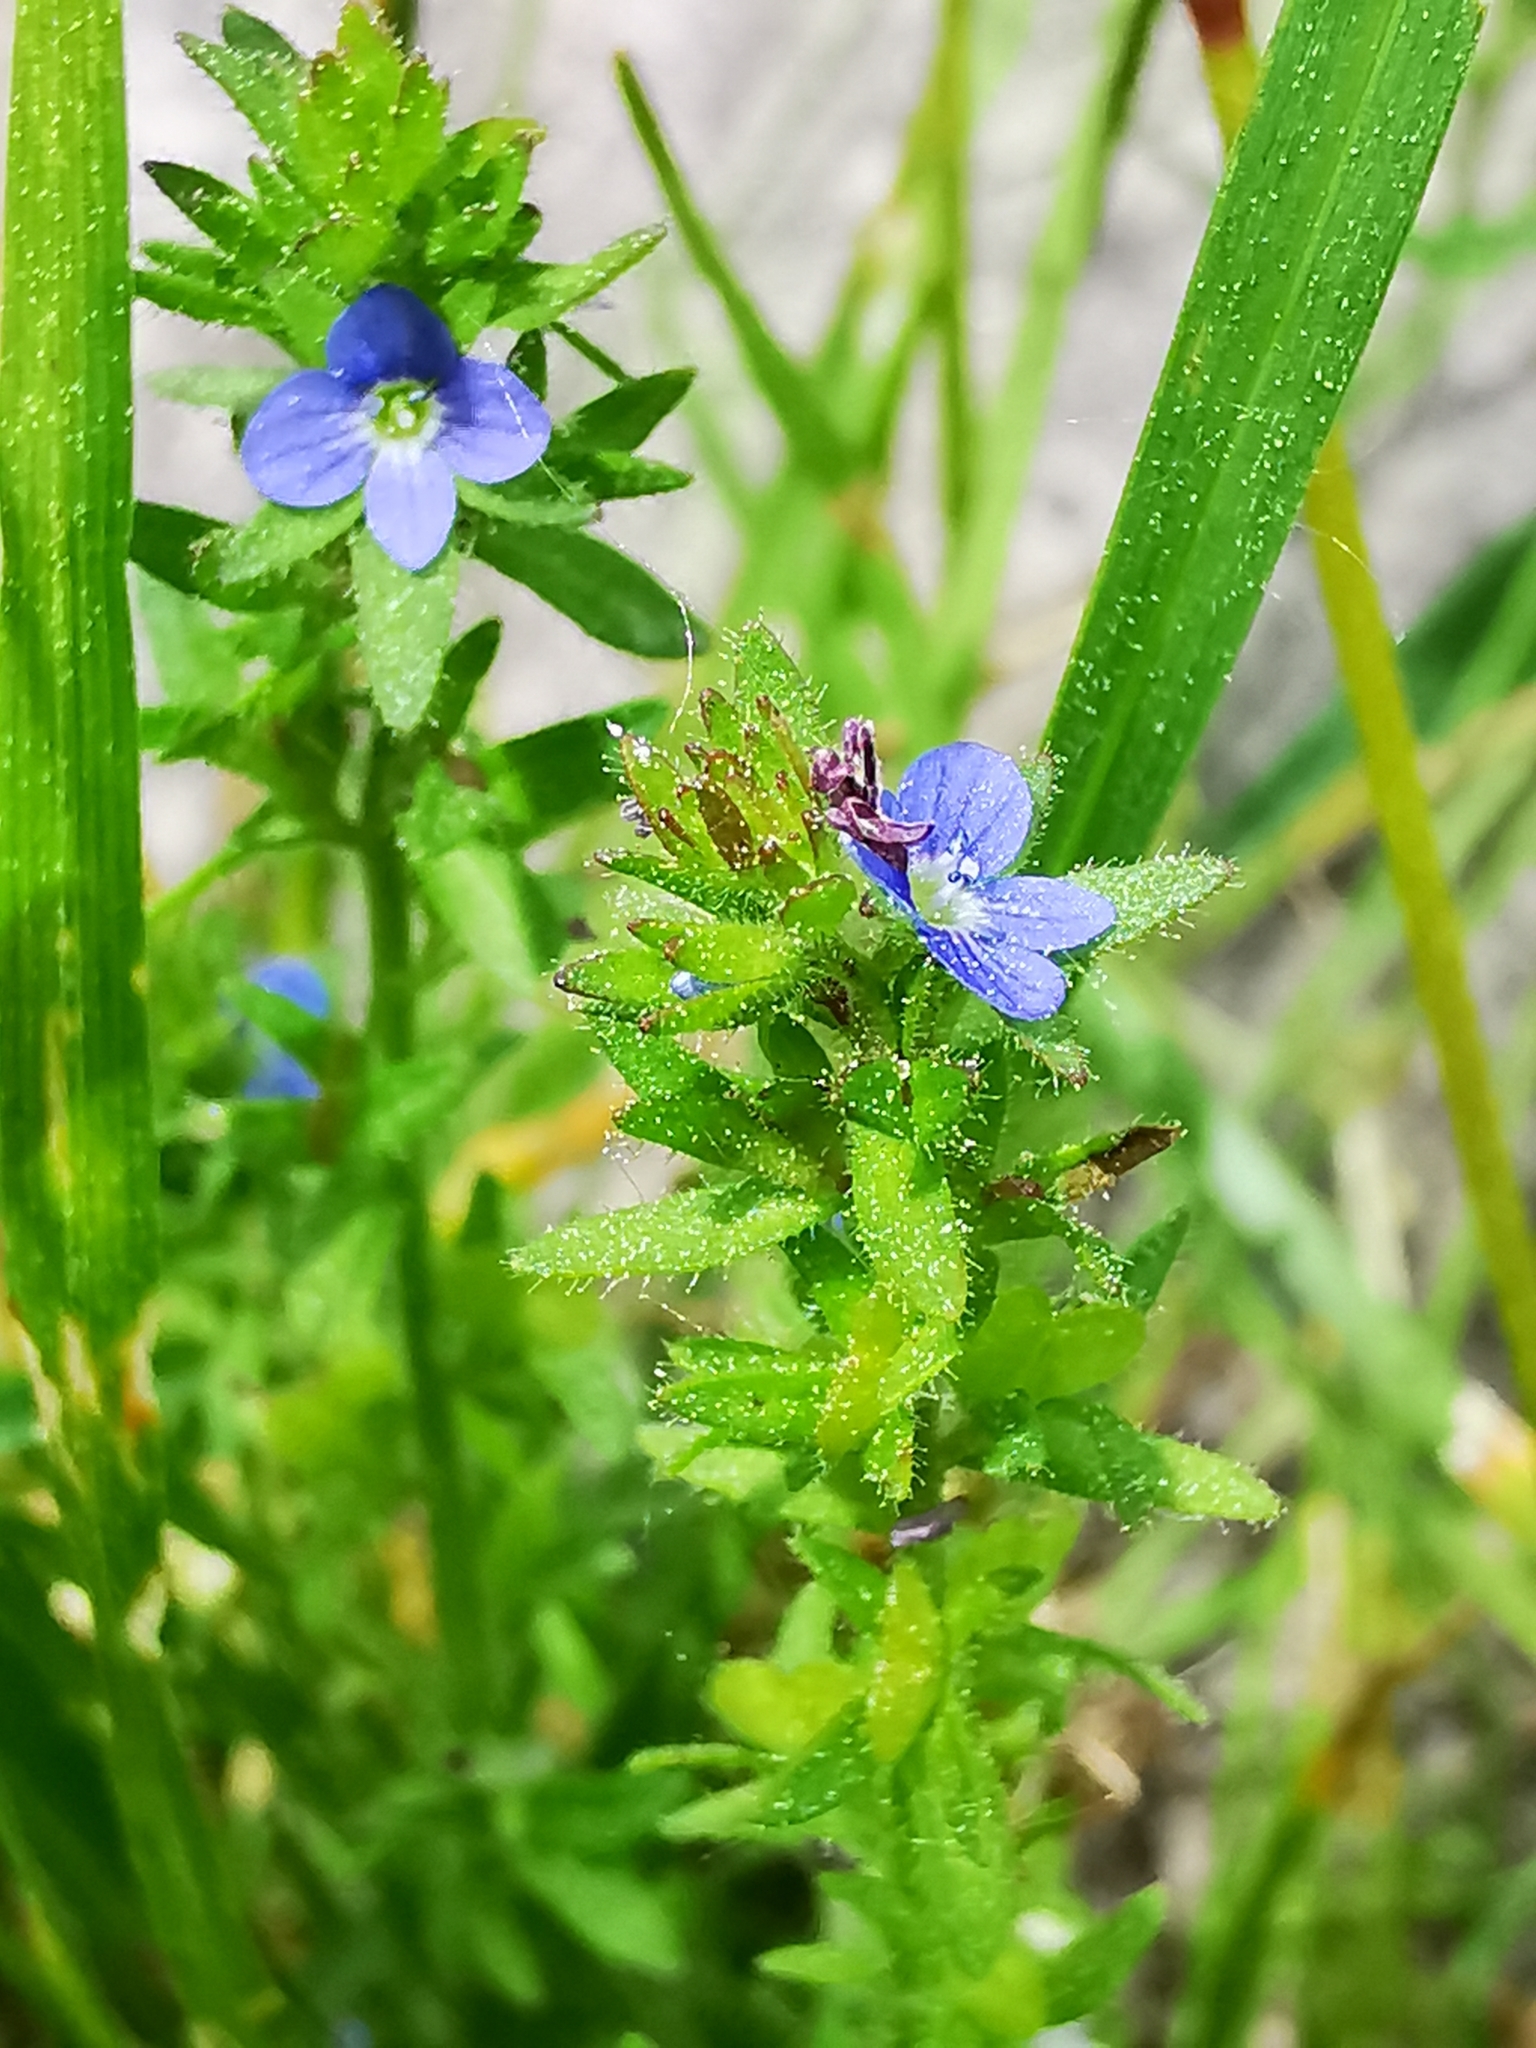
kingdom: Plantae
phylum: Tracheophyta
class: Magnoliopsida
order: Lamiales
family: Plantaginaceae
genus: Veronica
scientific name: Veronica arvensis
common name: Corn speedwell
